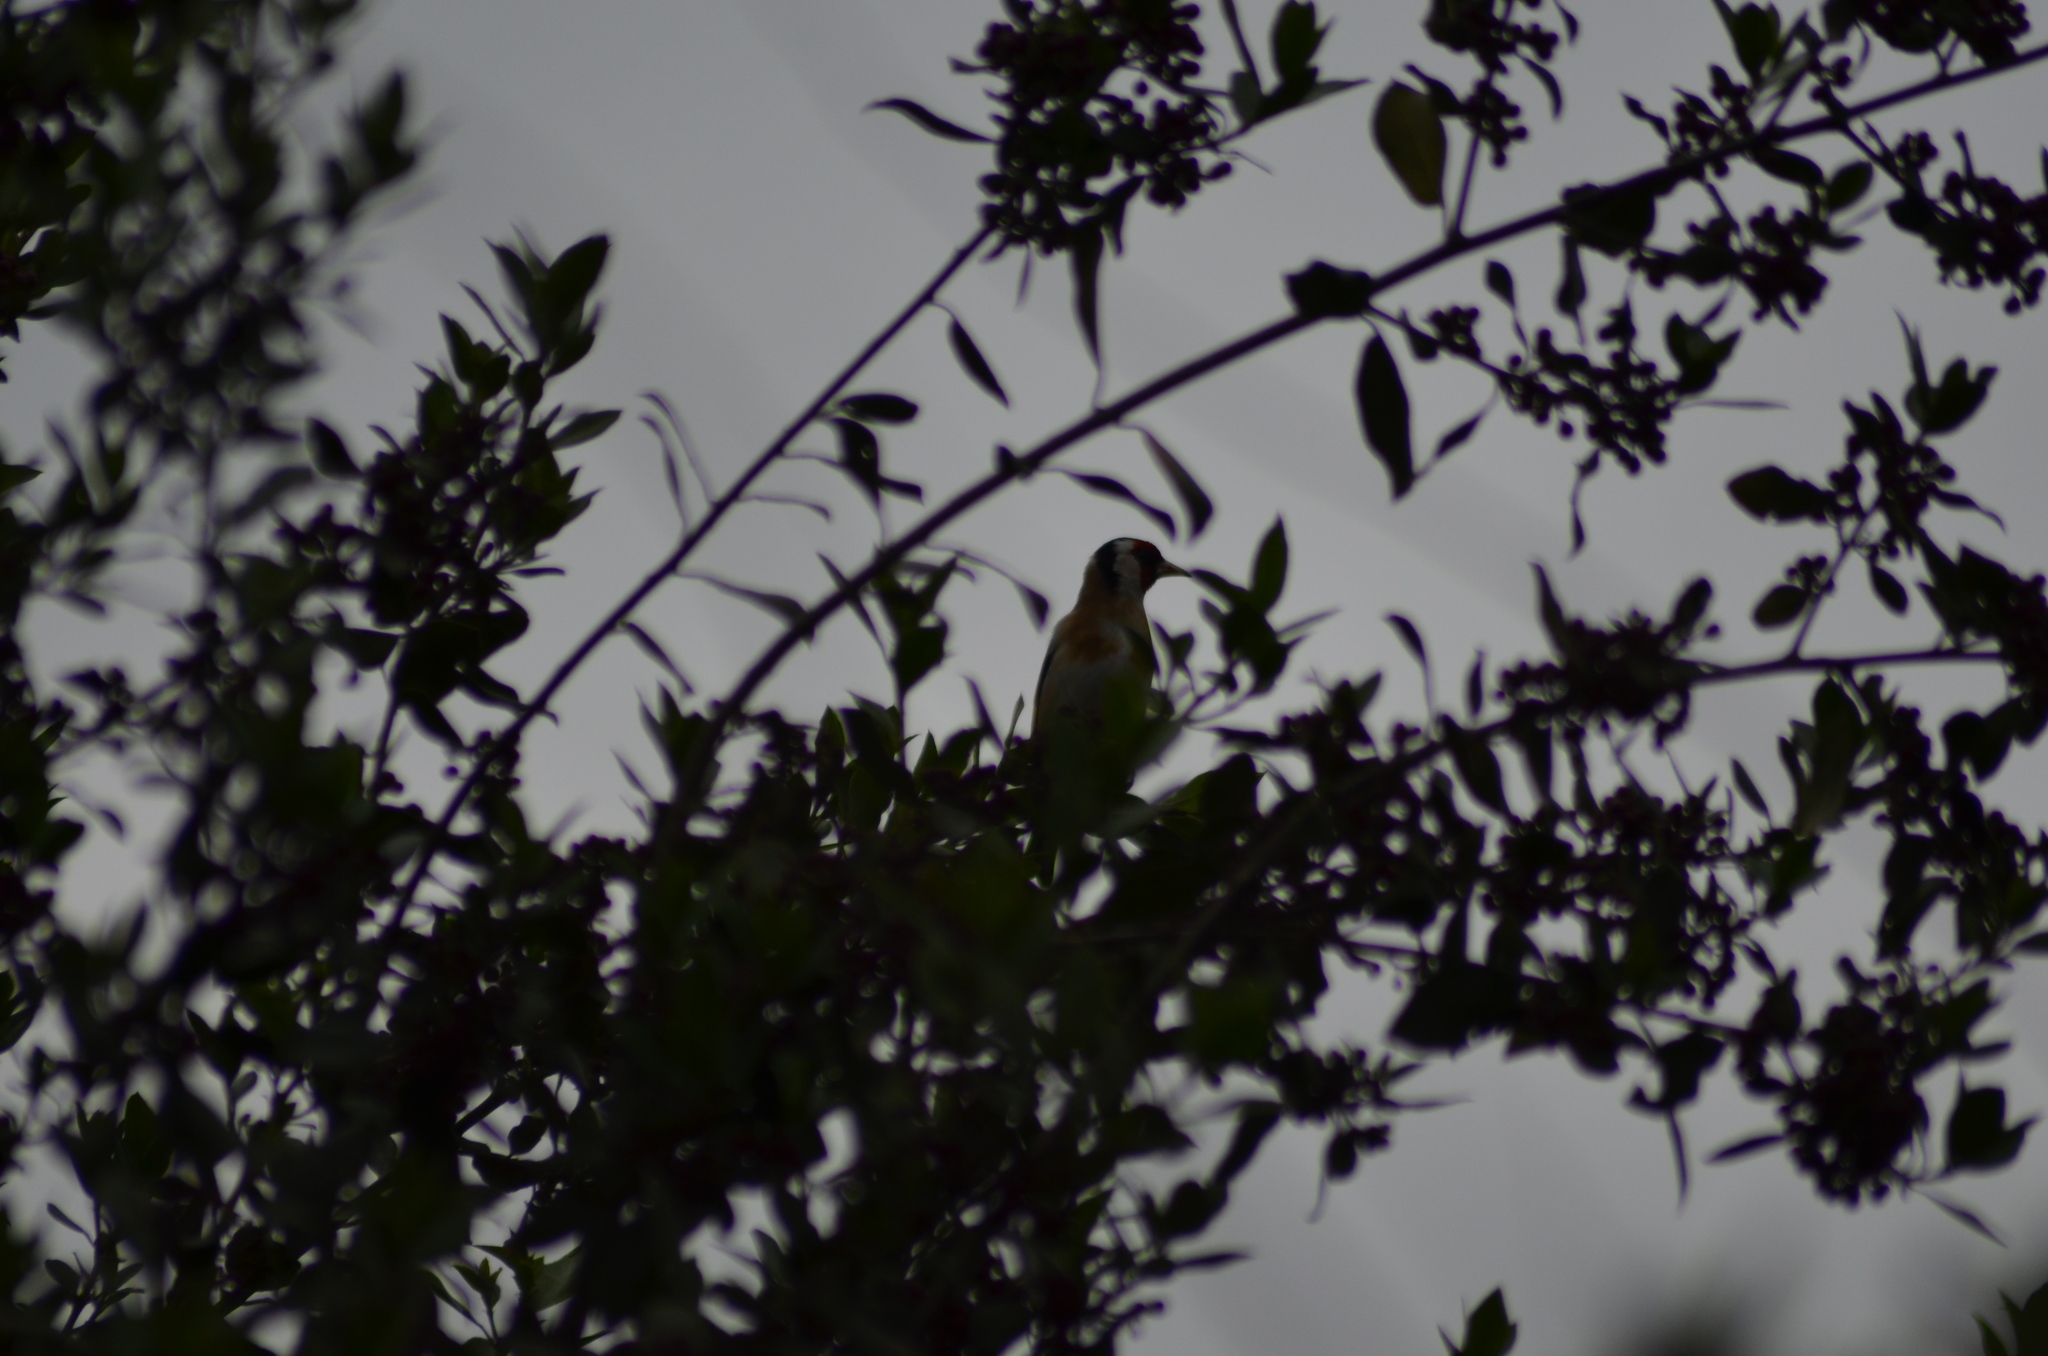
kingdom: Animalia
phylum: Chordata
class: Aves
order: Passeriformes
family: Fringillidae
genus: Carduelis
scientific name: Carduelis carduelis
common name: European goldfinch
